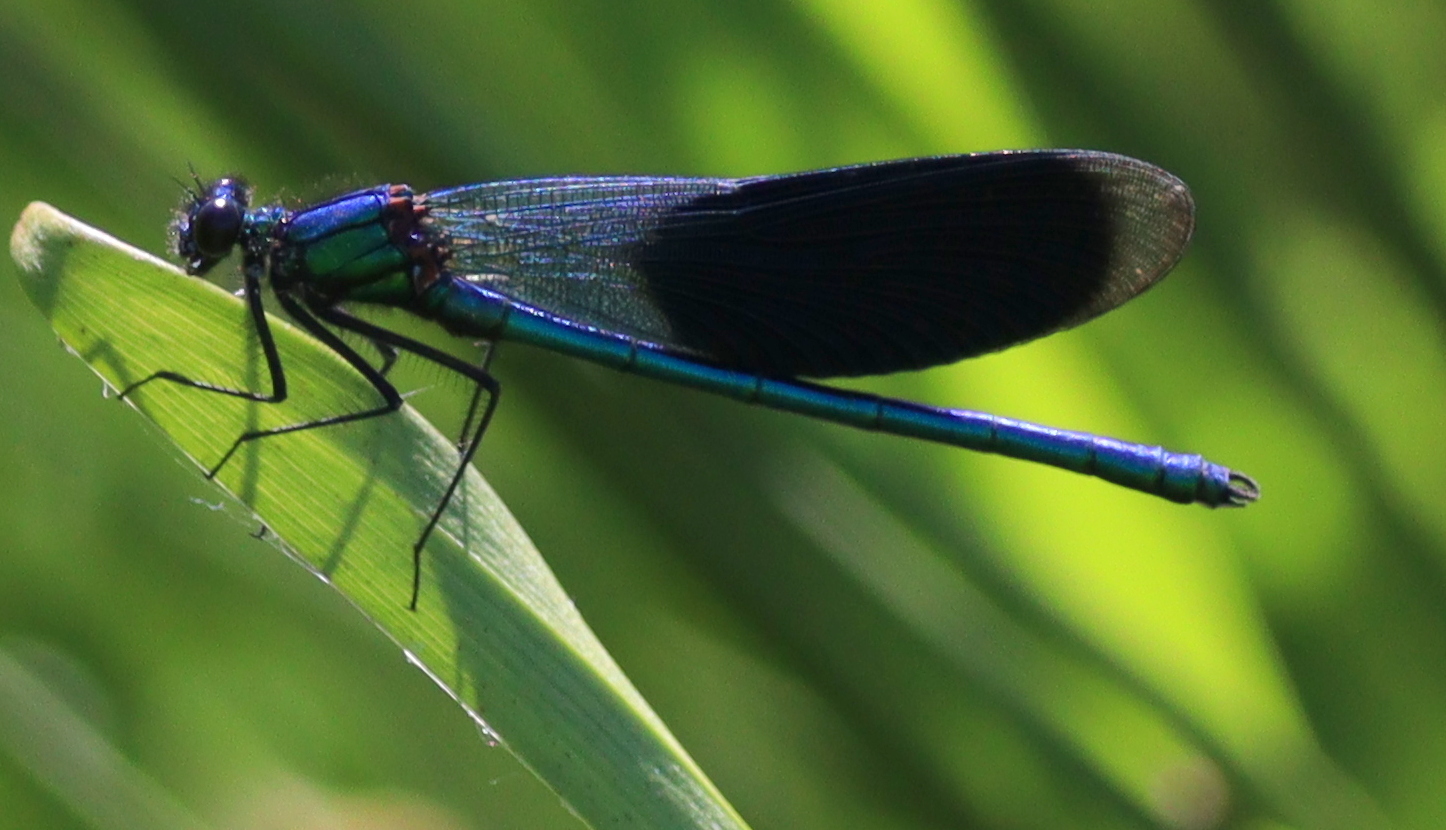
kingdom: Animalia
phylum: Arthropoda
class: Insecta
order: Odonata
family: Calopterygidae
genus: Calopteryx
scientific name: Calopteryx splendens
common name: Banded demoiselle
